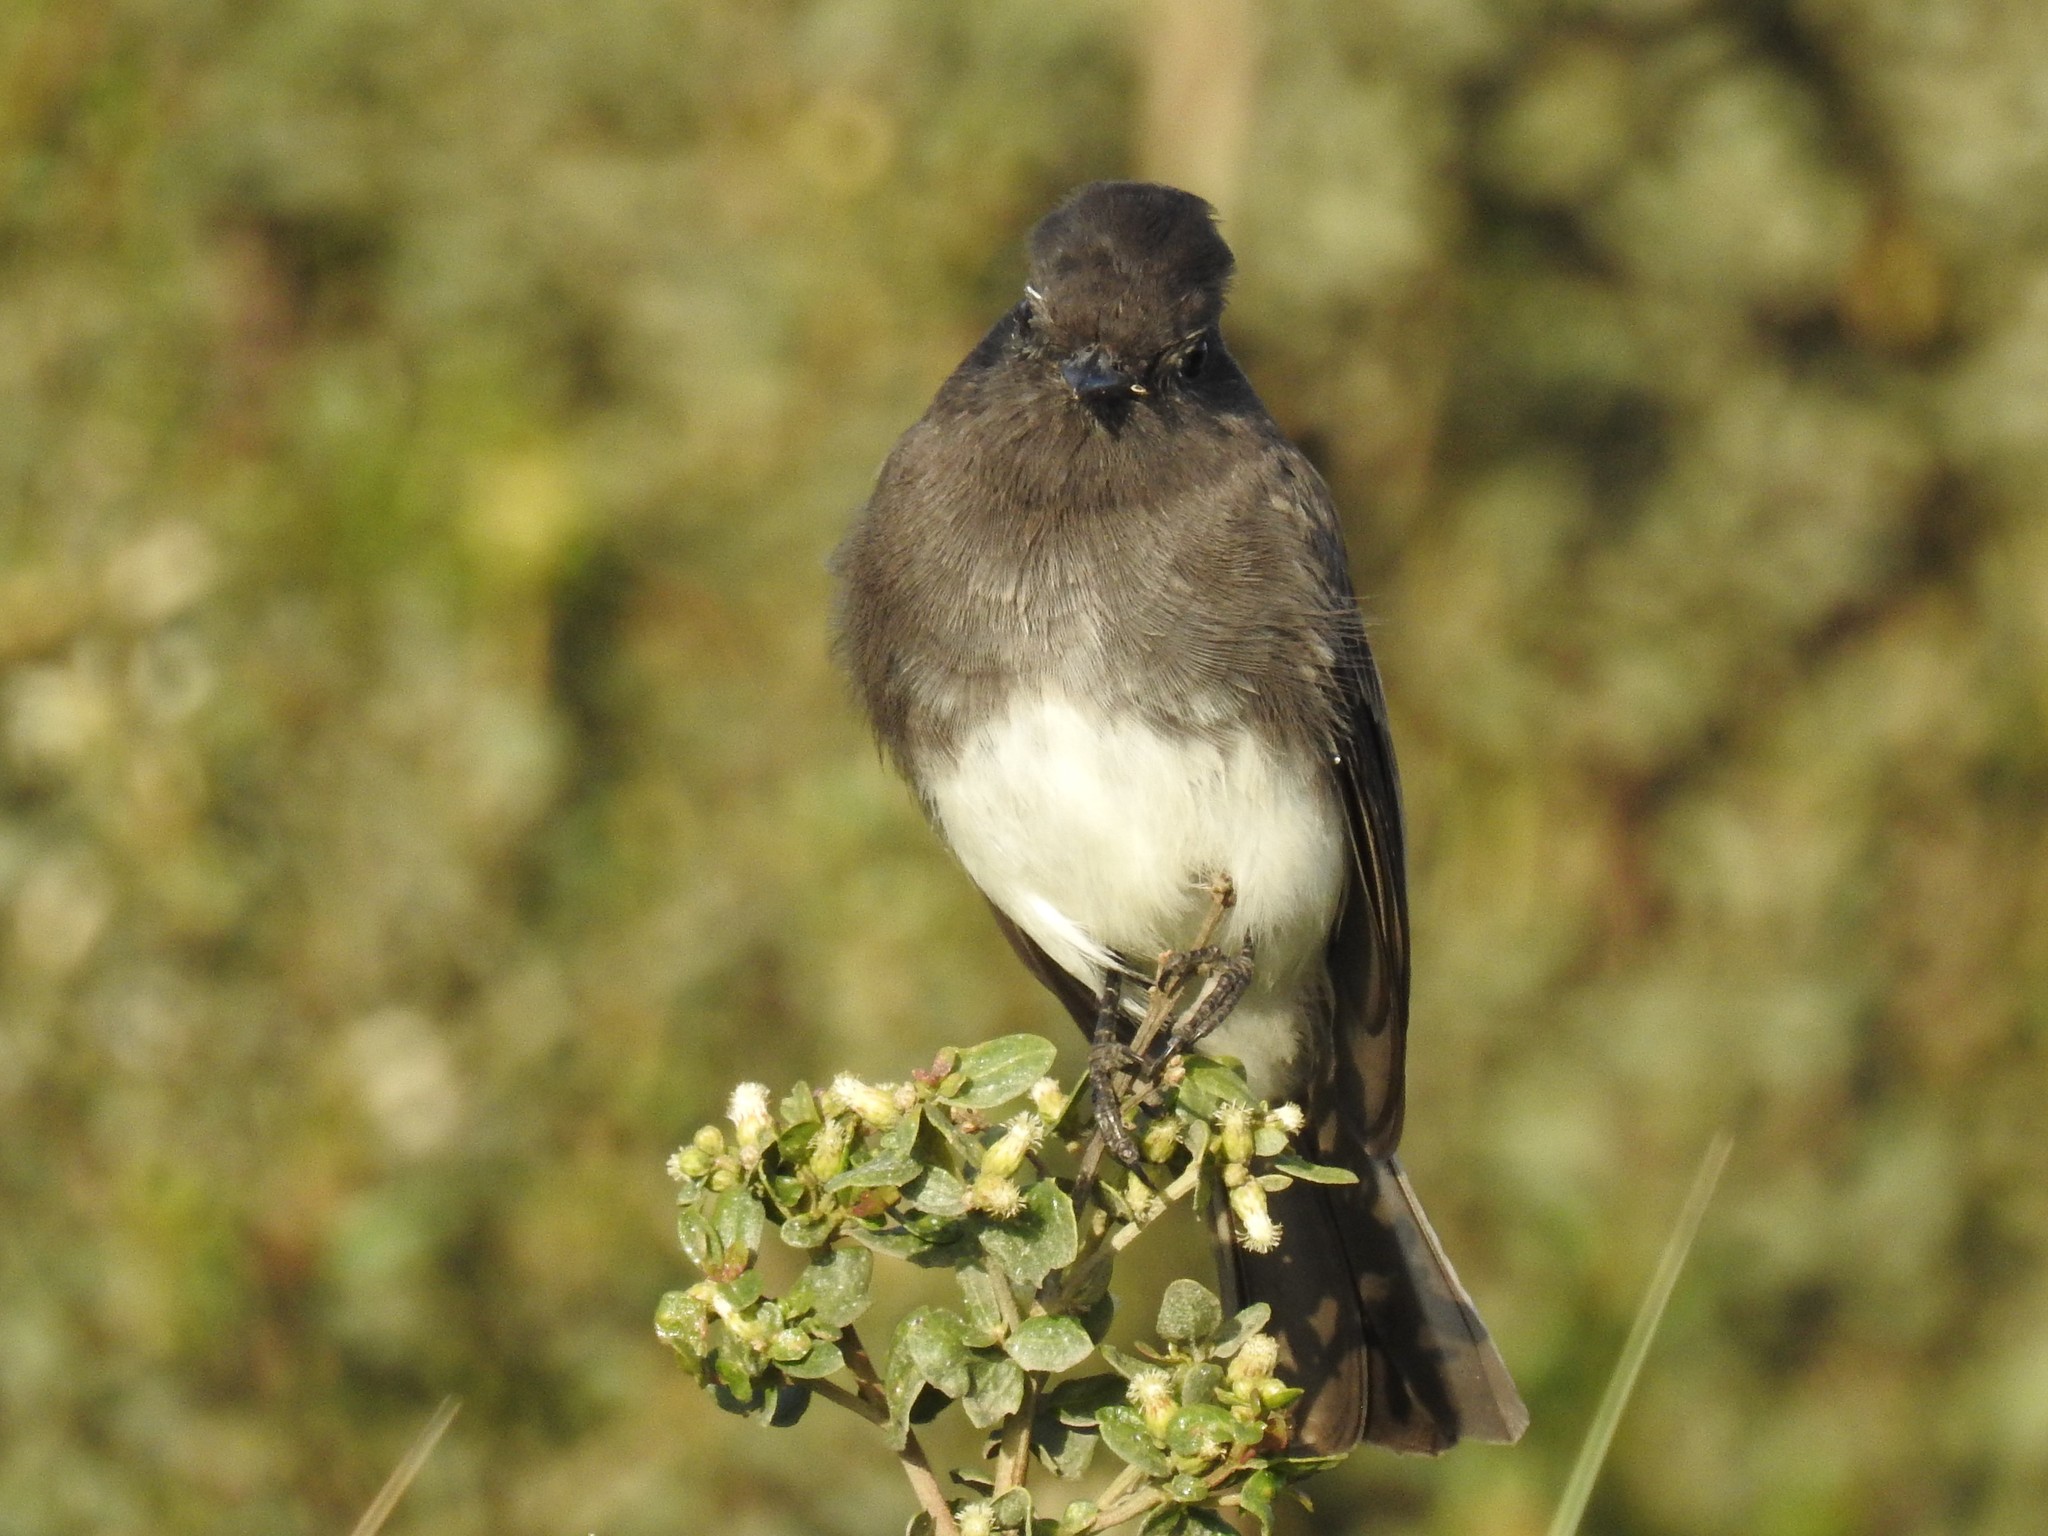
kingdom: Animalia
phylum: Chordata
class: Aves
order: Passeriformes
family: Tyrannidae
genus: Sayornis
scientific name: Sayornis nigricans
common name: Black phoebe
